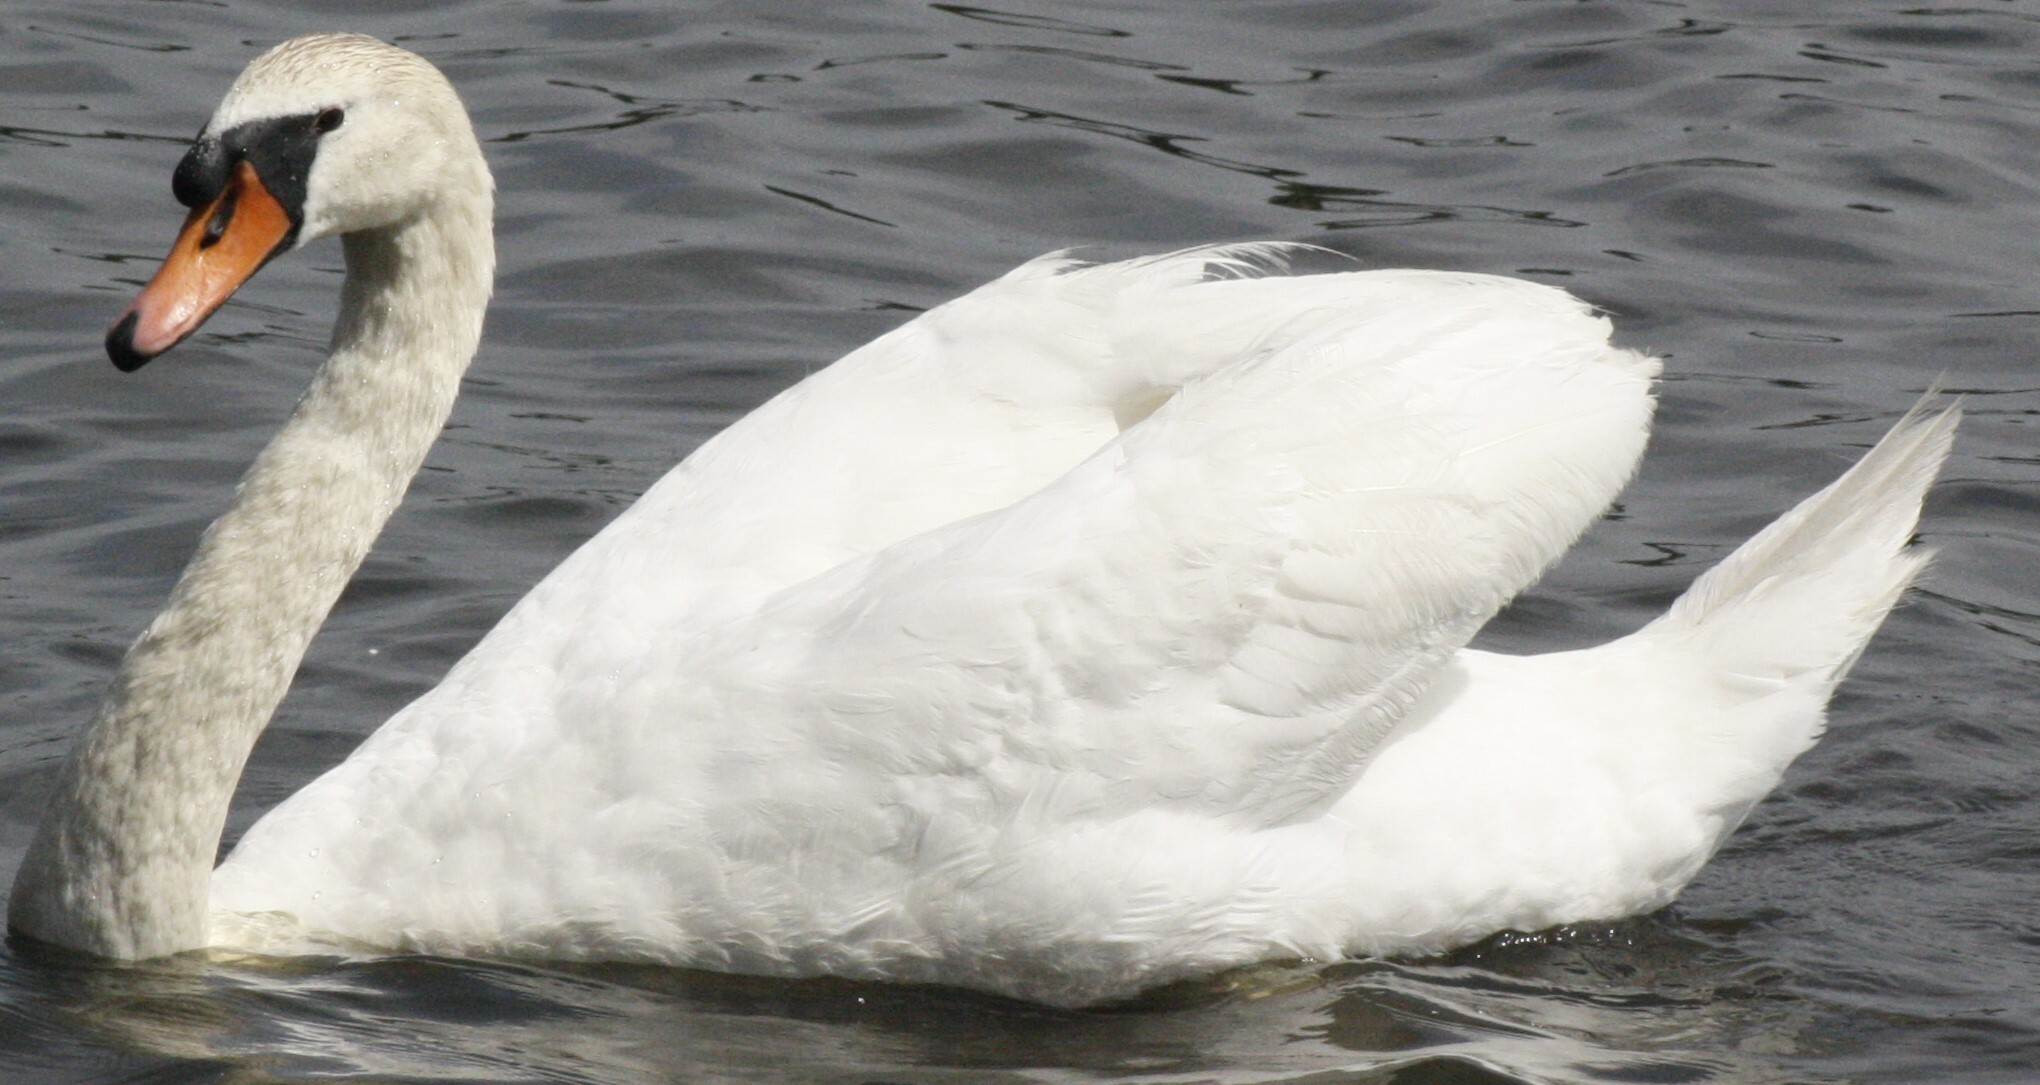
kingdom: Animalia
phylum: Chordata
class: Aves
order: Anseriformes
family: Anatidae
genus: Cygnus
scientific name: Cygnus olor
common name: Mute swan
